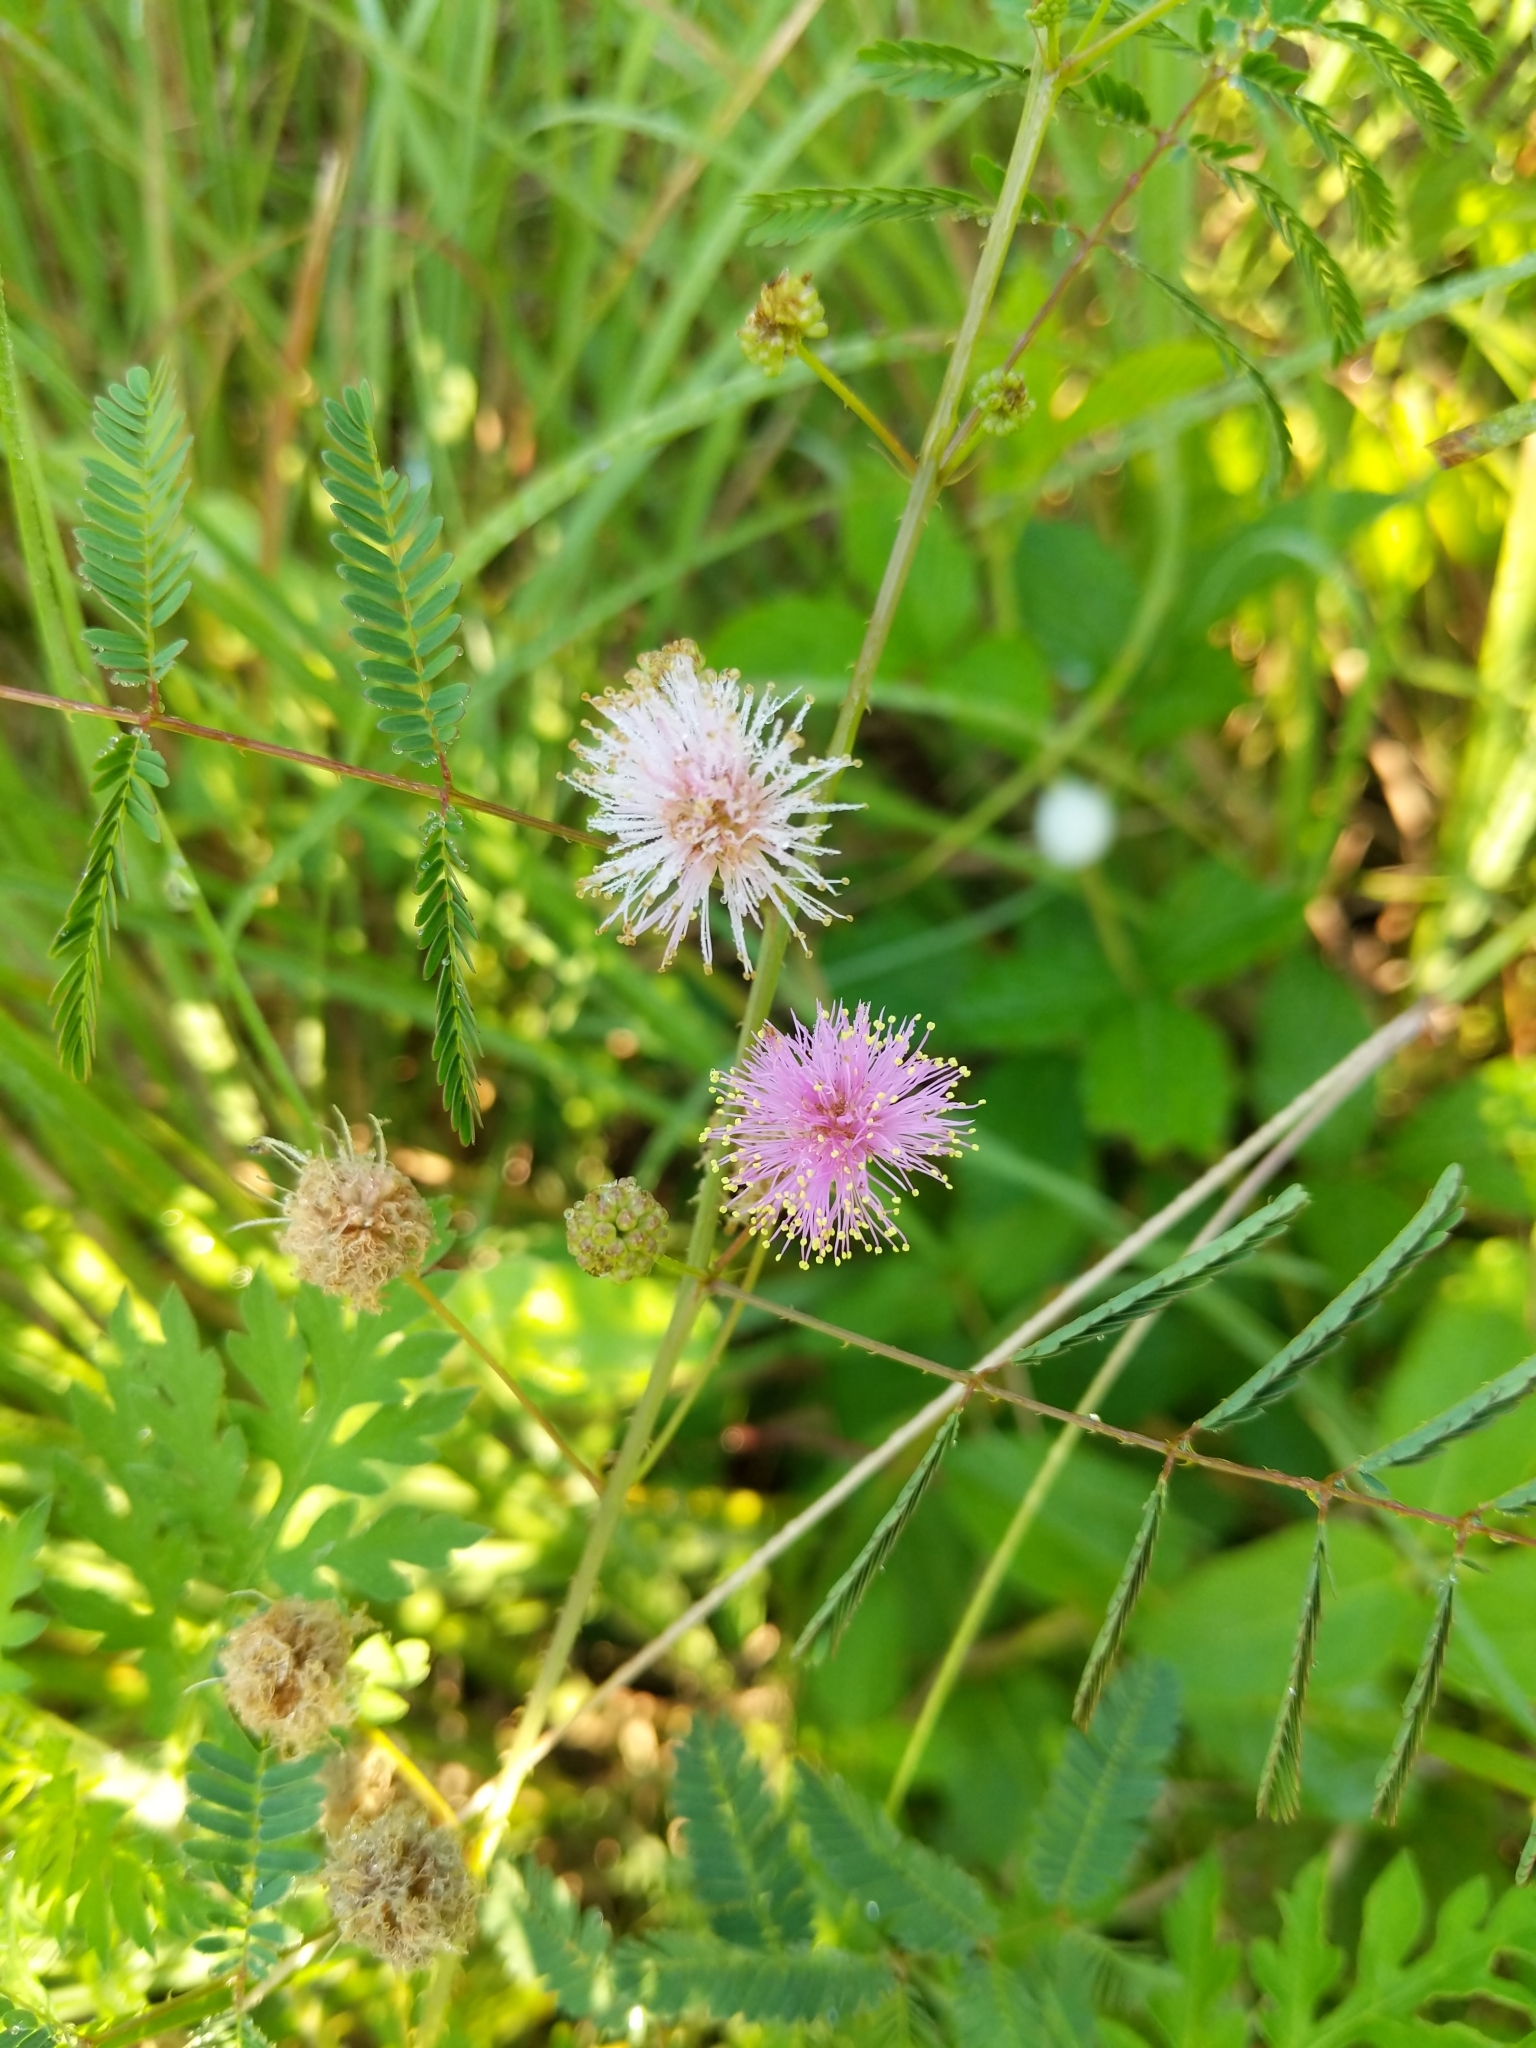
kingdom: Plantae
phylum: Tracheophyta
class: Magnoliopsida
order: Fabales
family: Fabaceae
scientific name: Fabaceae
